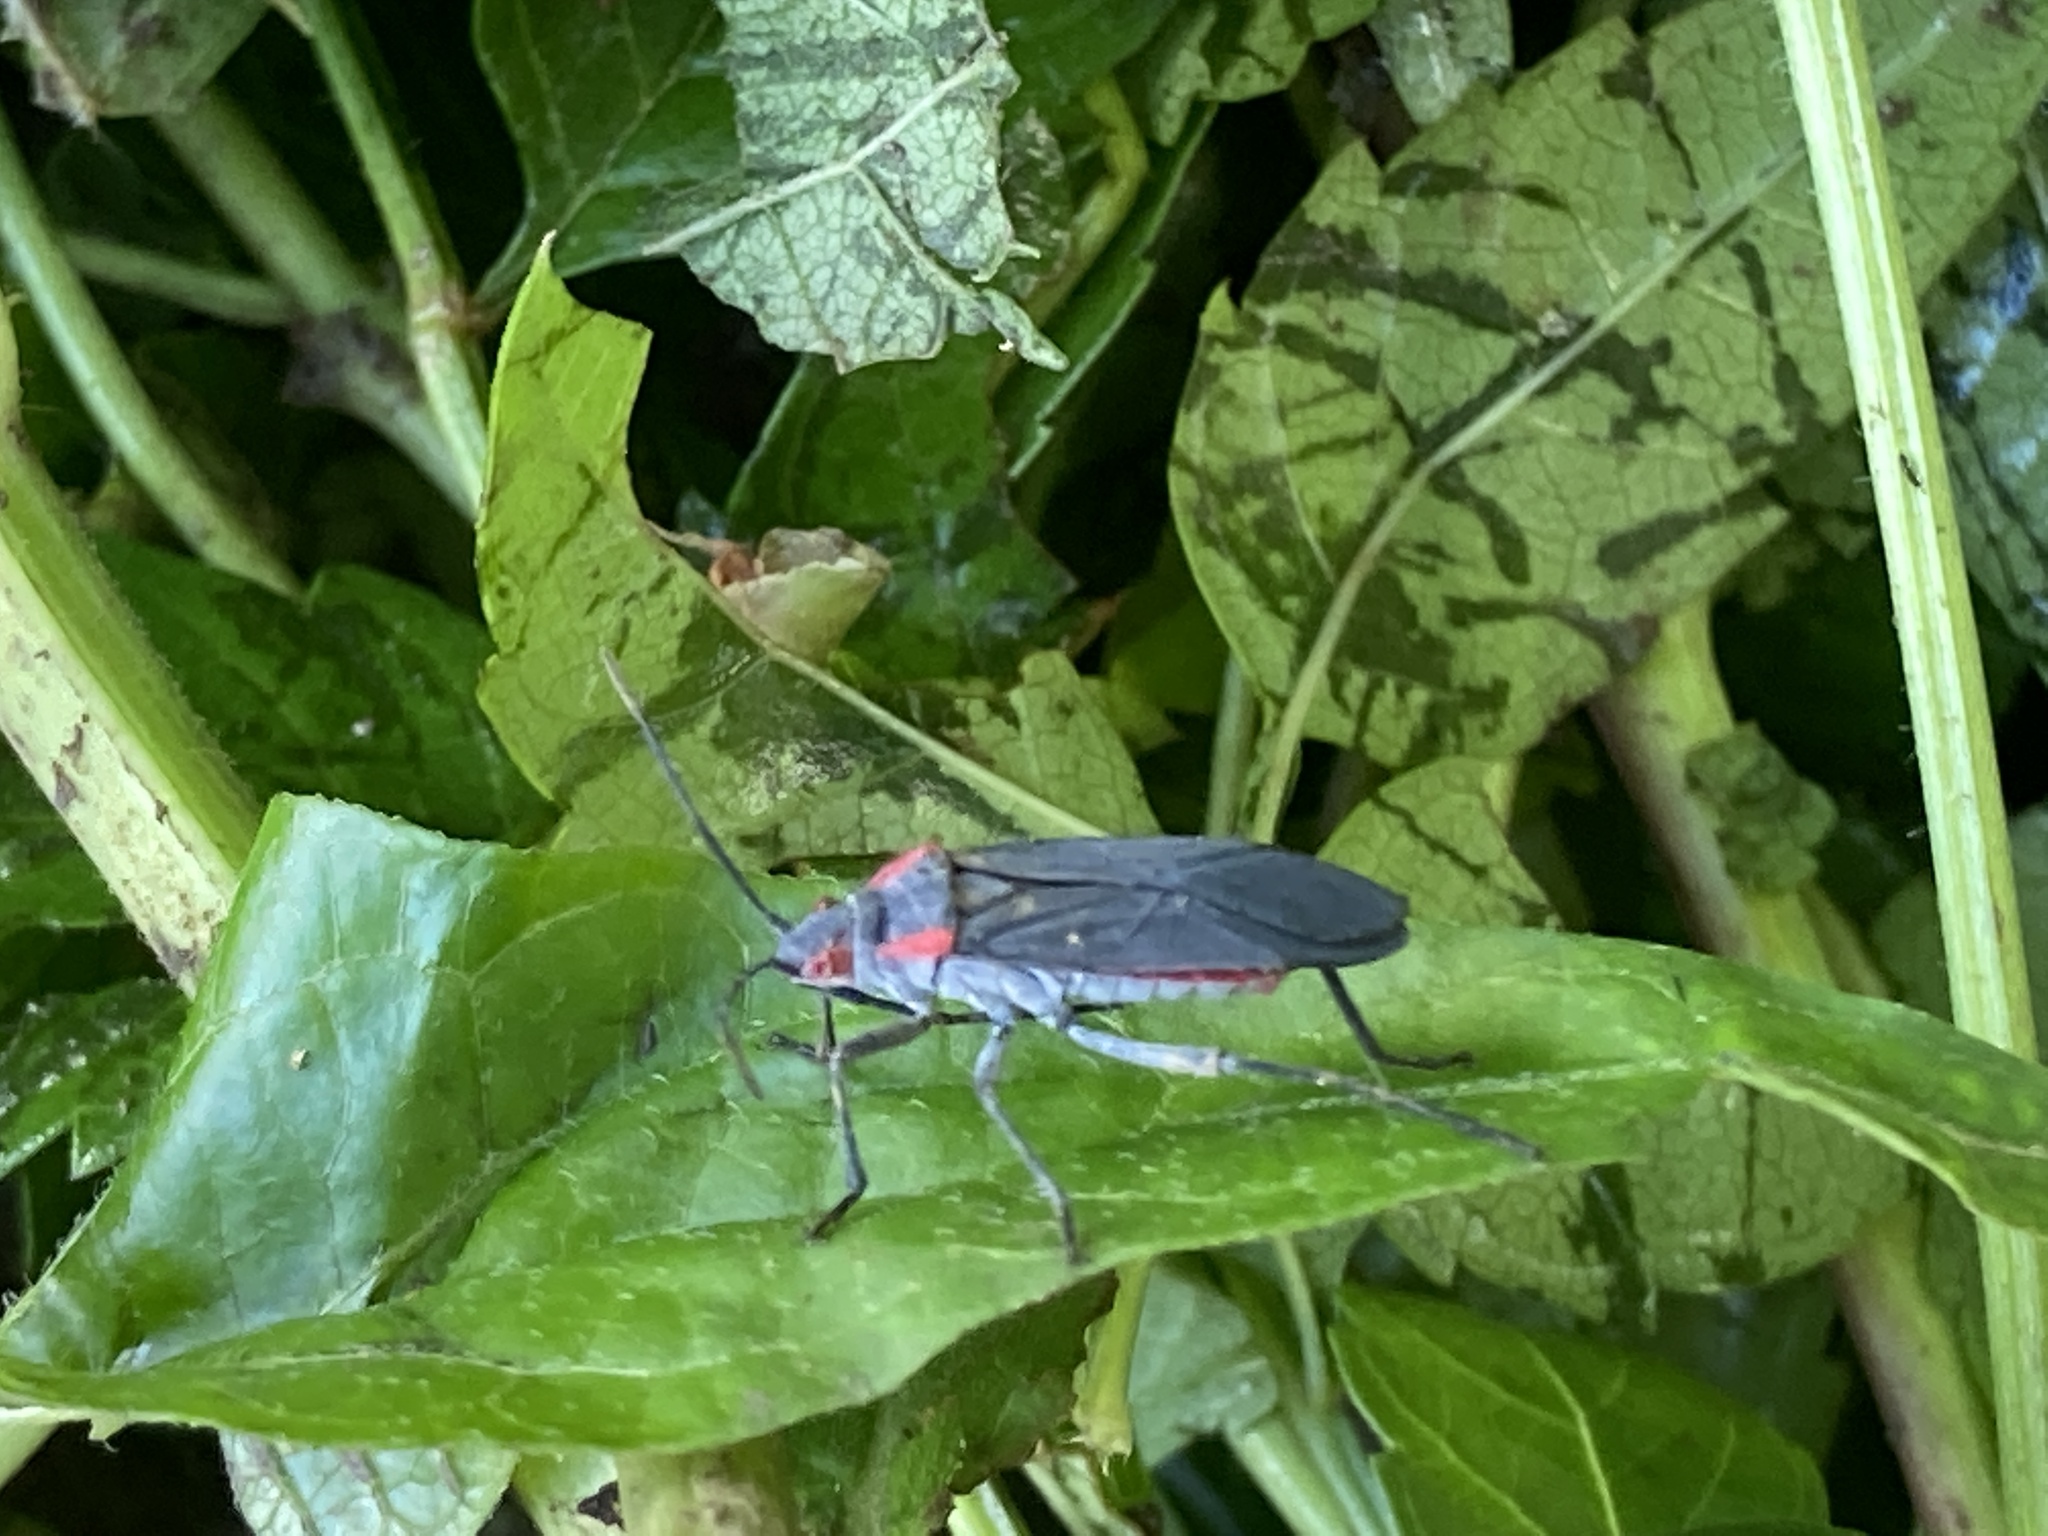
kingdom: Animalia
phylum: Arthropoda
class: Insecta
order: Hemiptera
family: Rhopalidae
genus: Jadera
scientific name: Jadera haematoloma
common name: Red-shouldered bug
